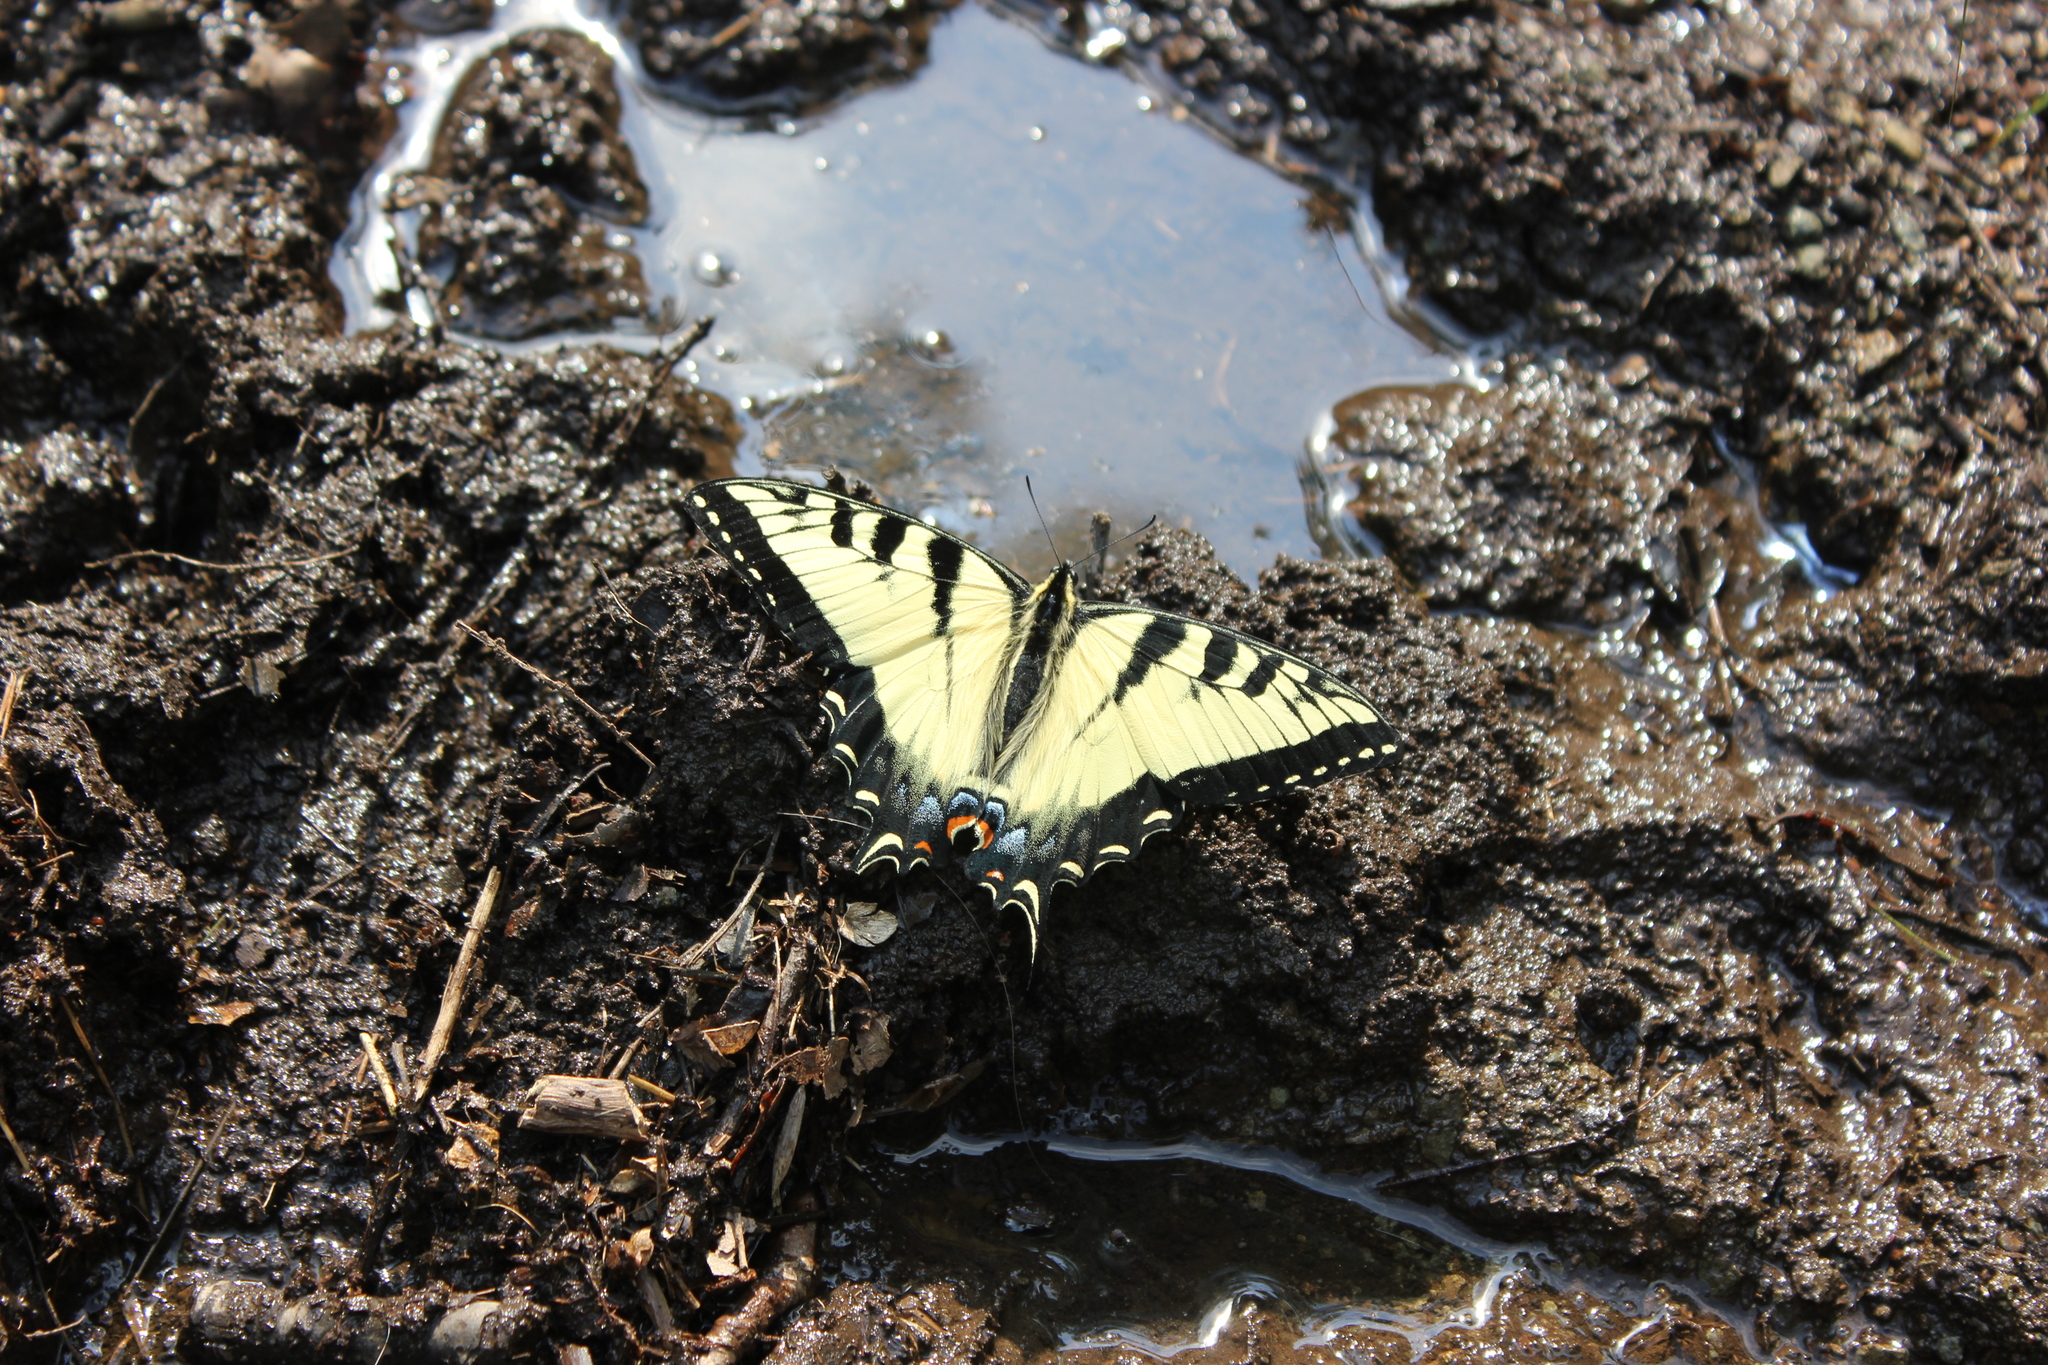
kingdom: Animalia
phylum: Arthropoda
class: Insecta
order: Lepidoptera
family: Papilionidae
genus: Papilio
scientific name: Papilio glaucus
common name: Tiger swallowtail
